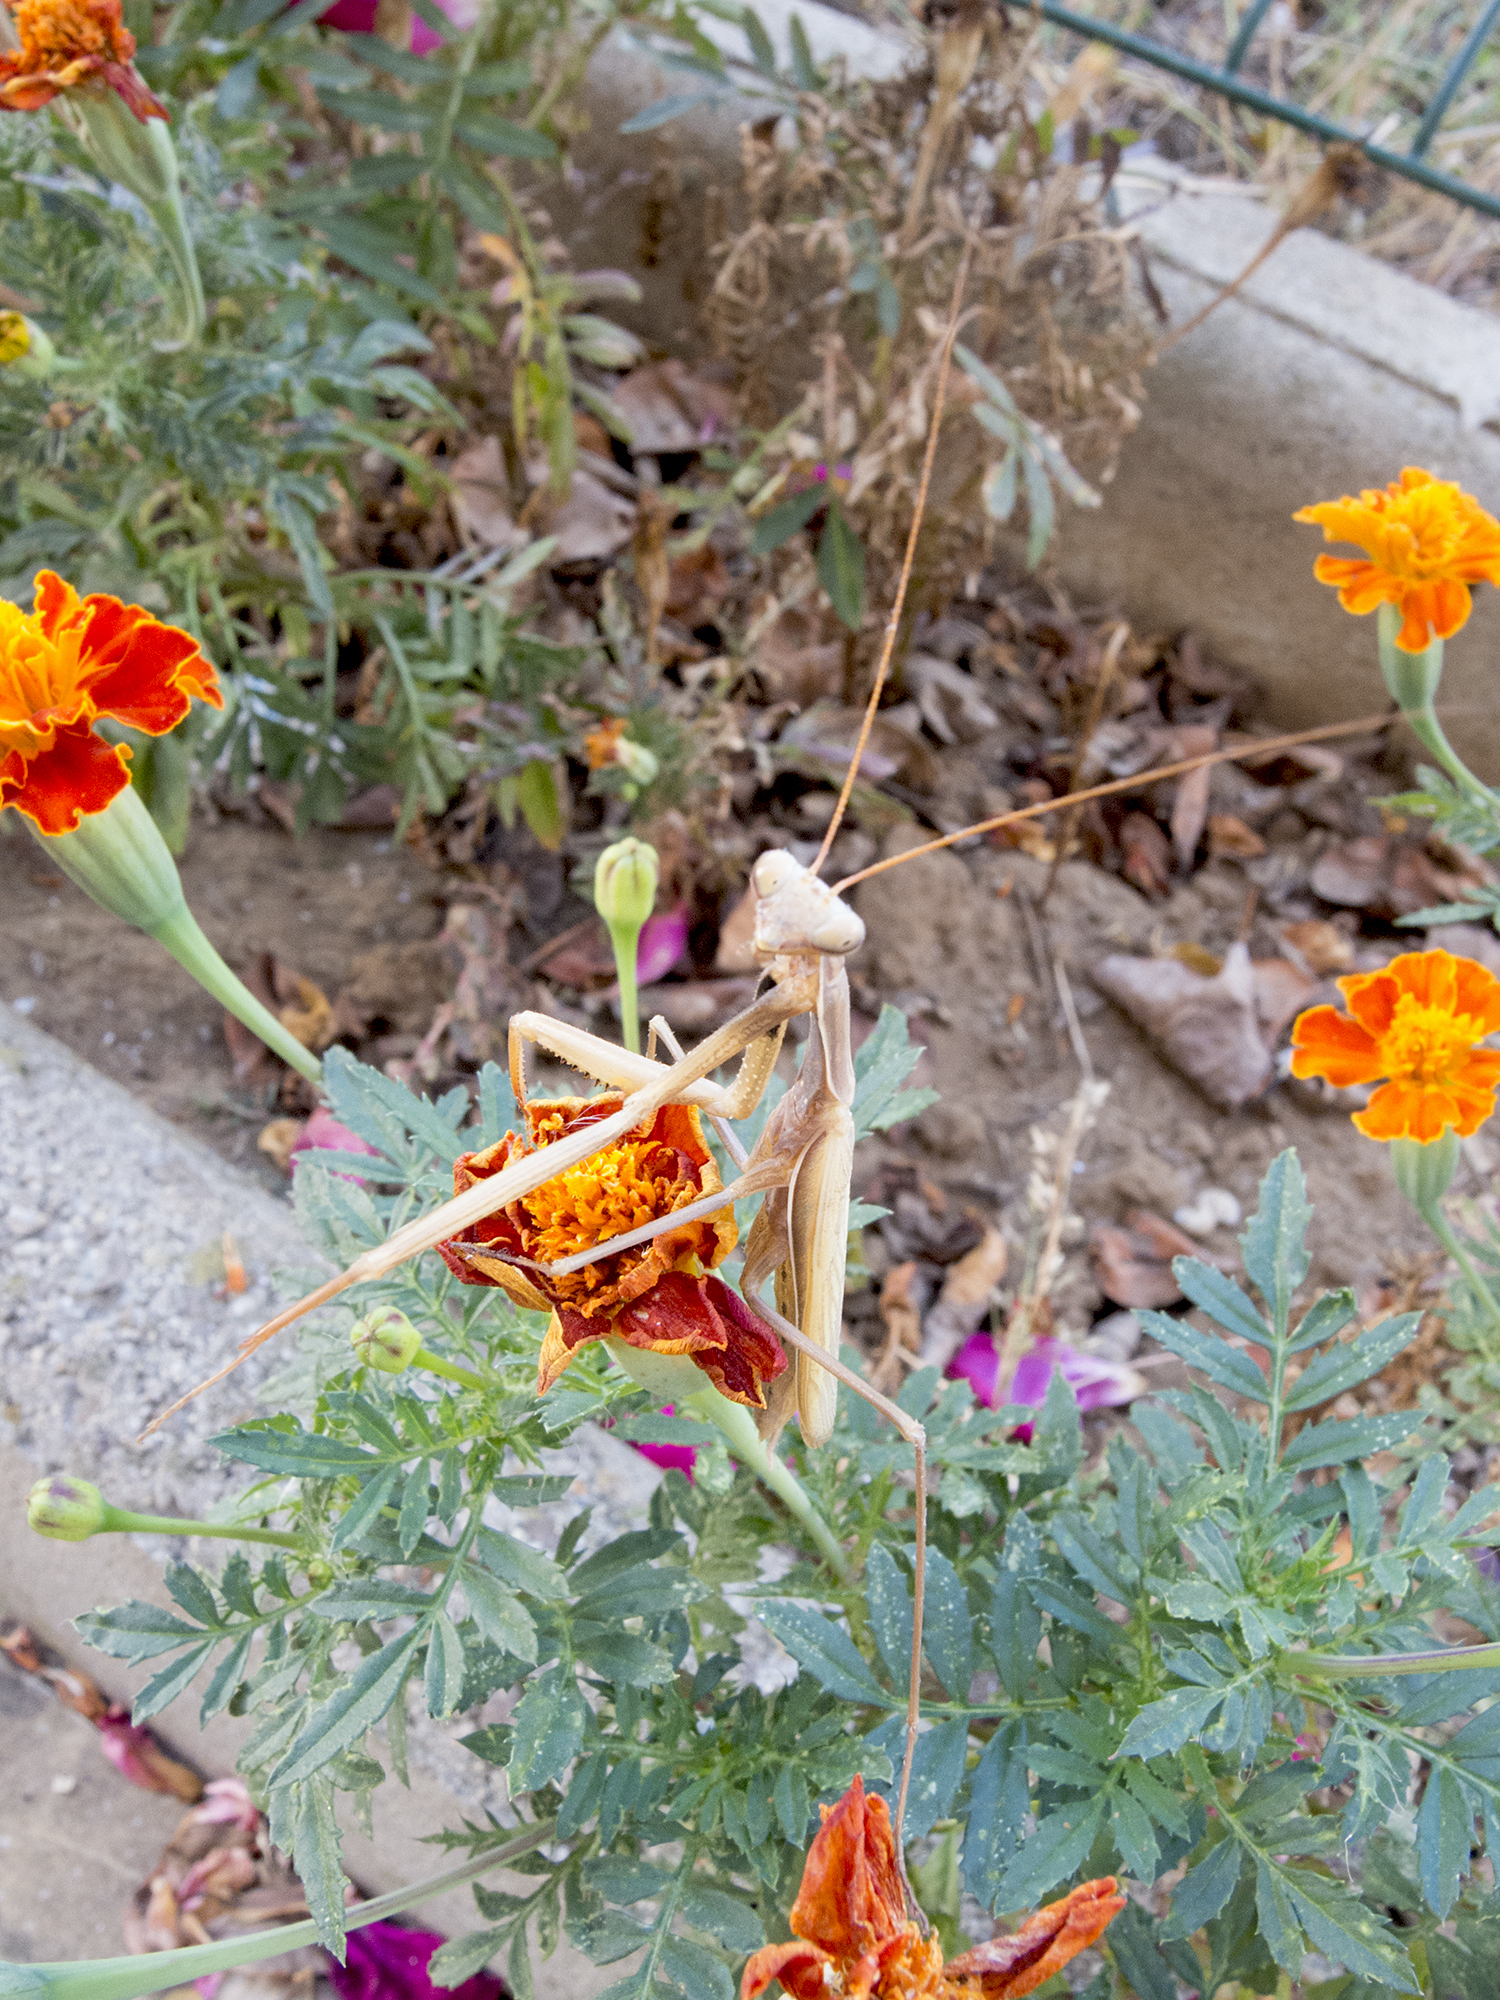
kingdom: Animalia
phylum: Arthropoda
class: Insecta
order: Mantodea
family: Mantidae
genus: Mantis
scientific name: Mantis religiosa
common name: Praying mantis
